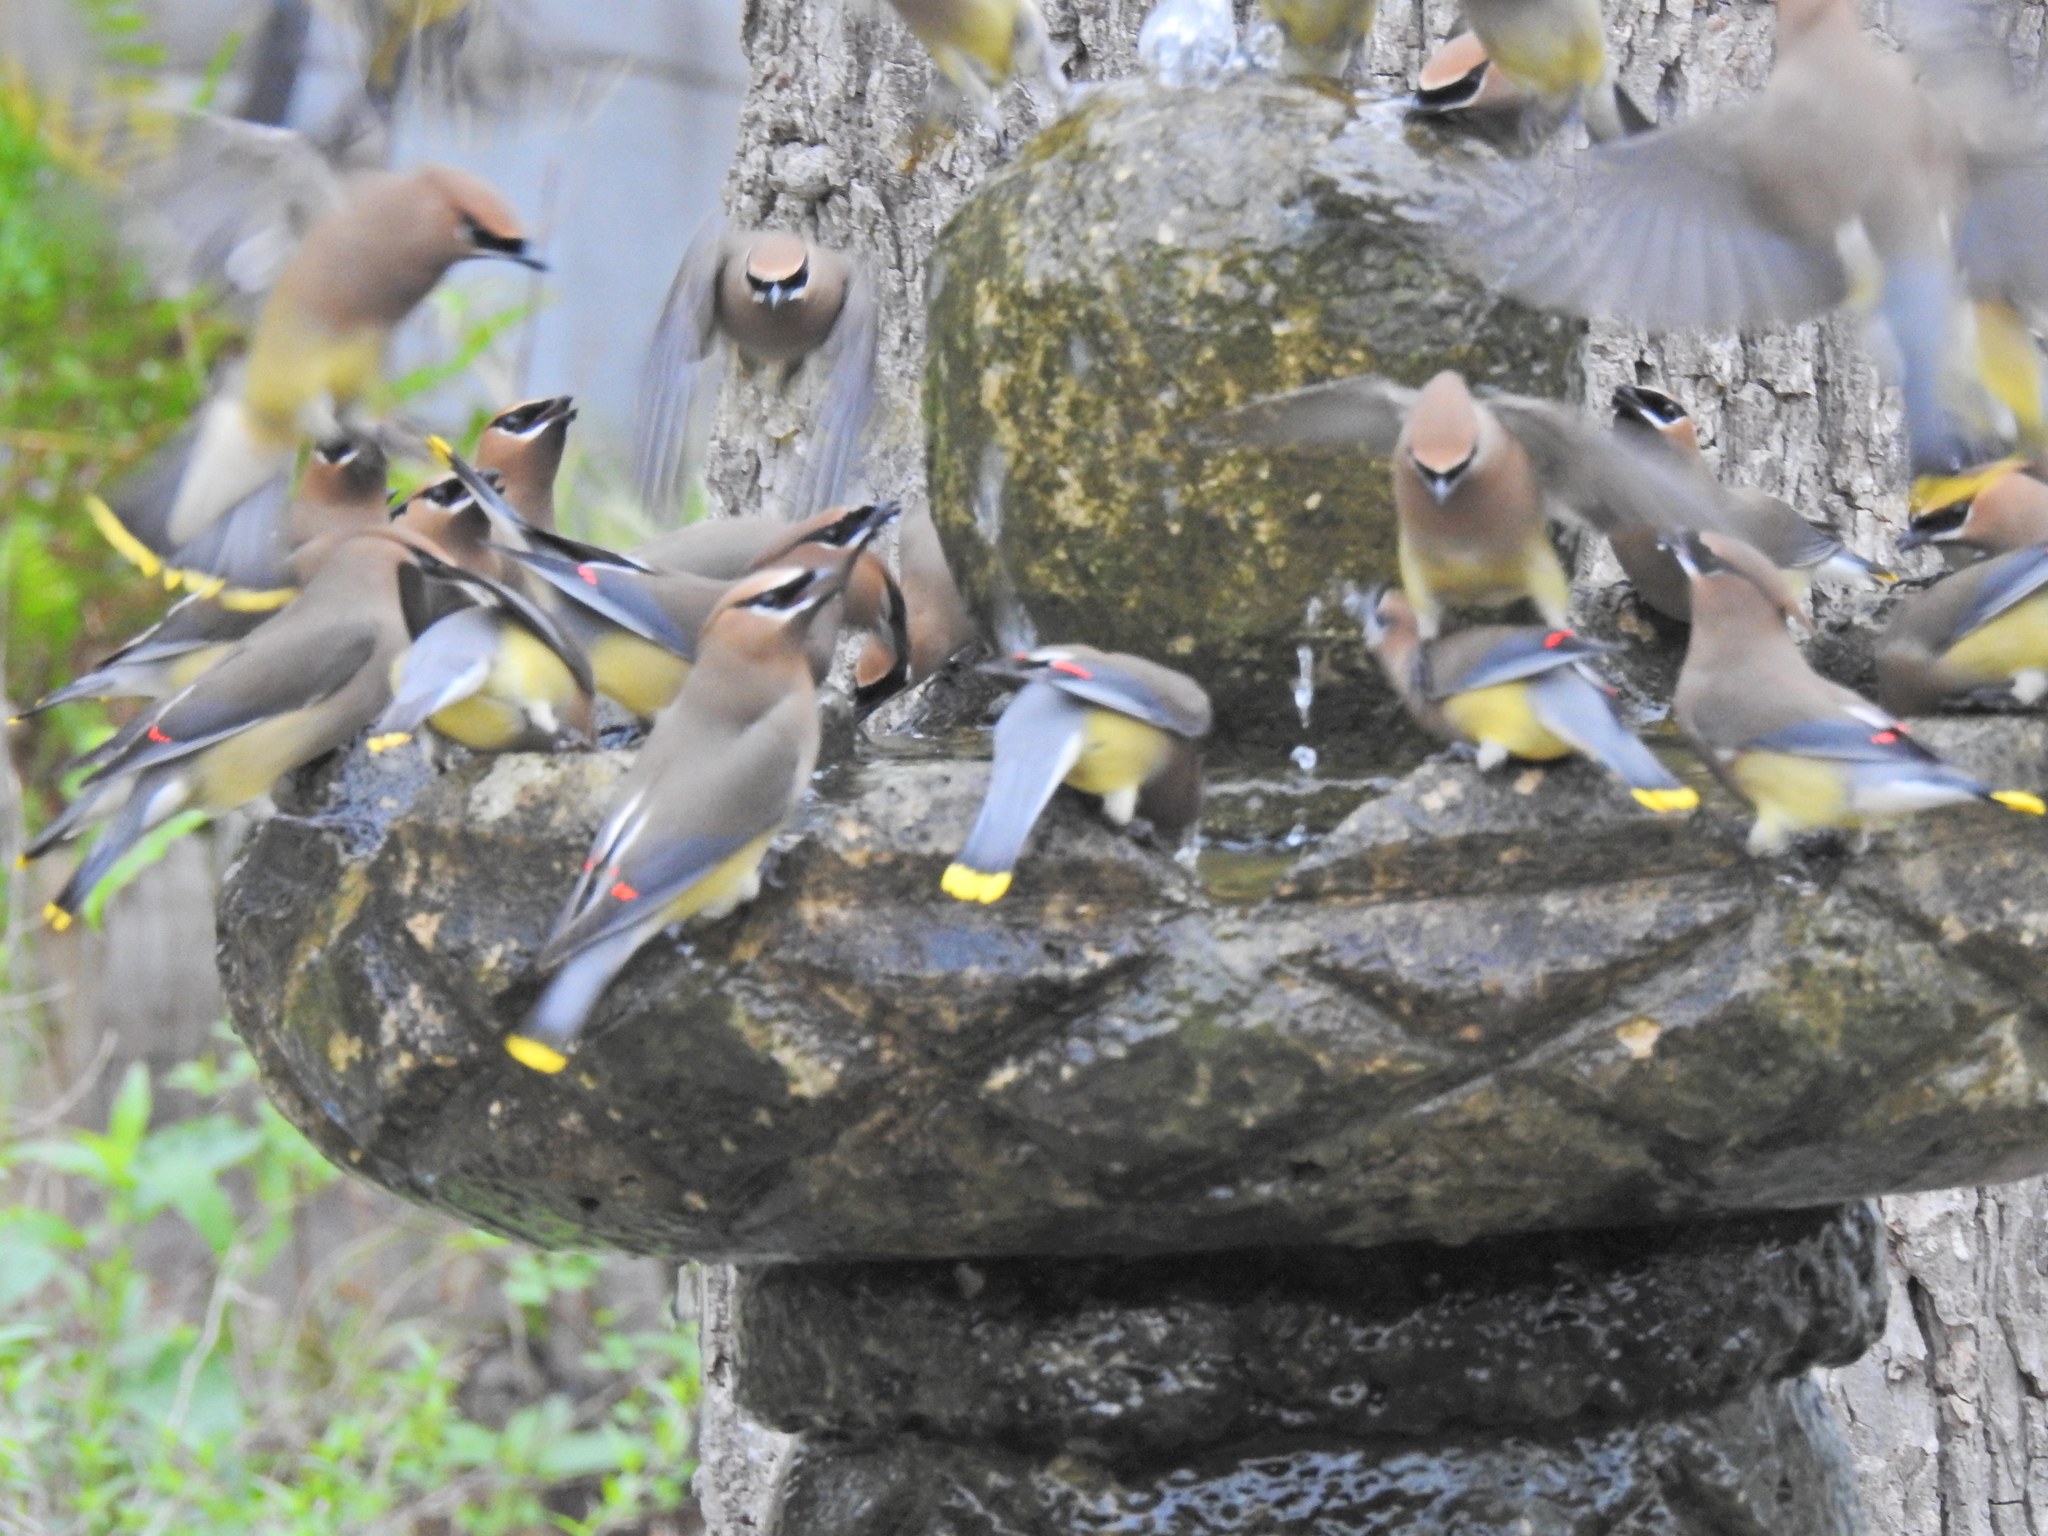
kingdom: Animalia
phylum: Chordata
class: Aves
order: Passeriformes
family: Bombycillidae
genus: Bombycilla
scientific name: Bombycilla cedrorum
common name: Cedar waxwing
